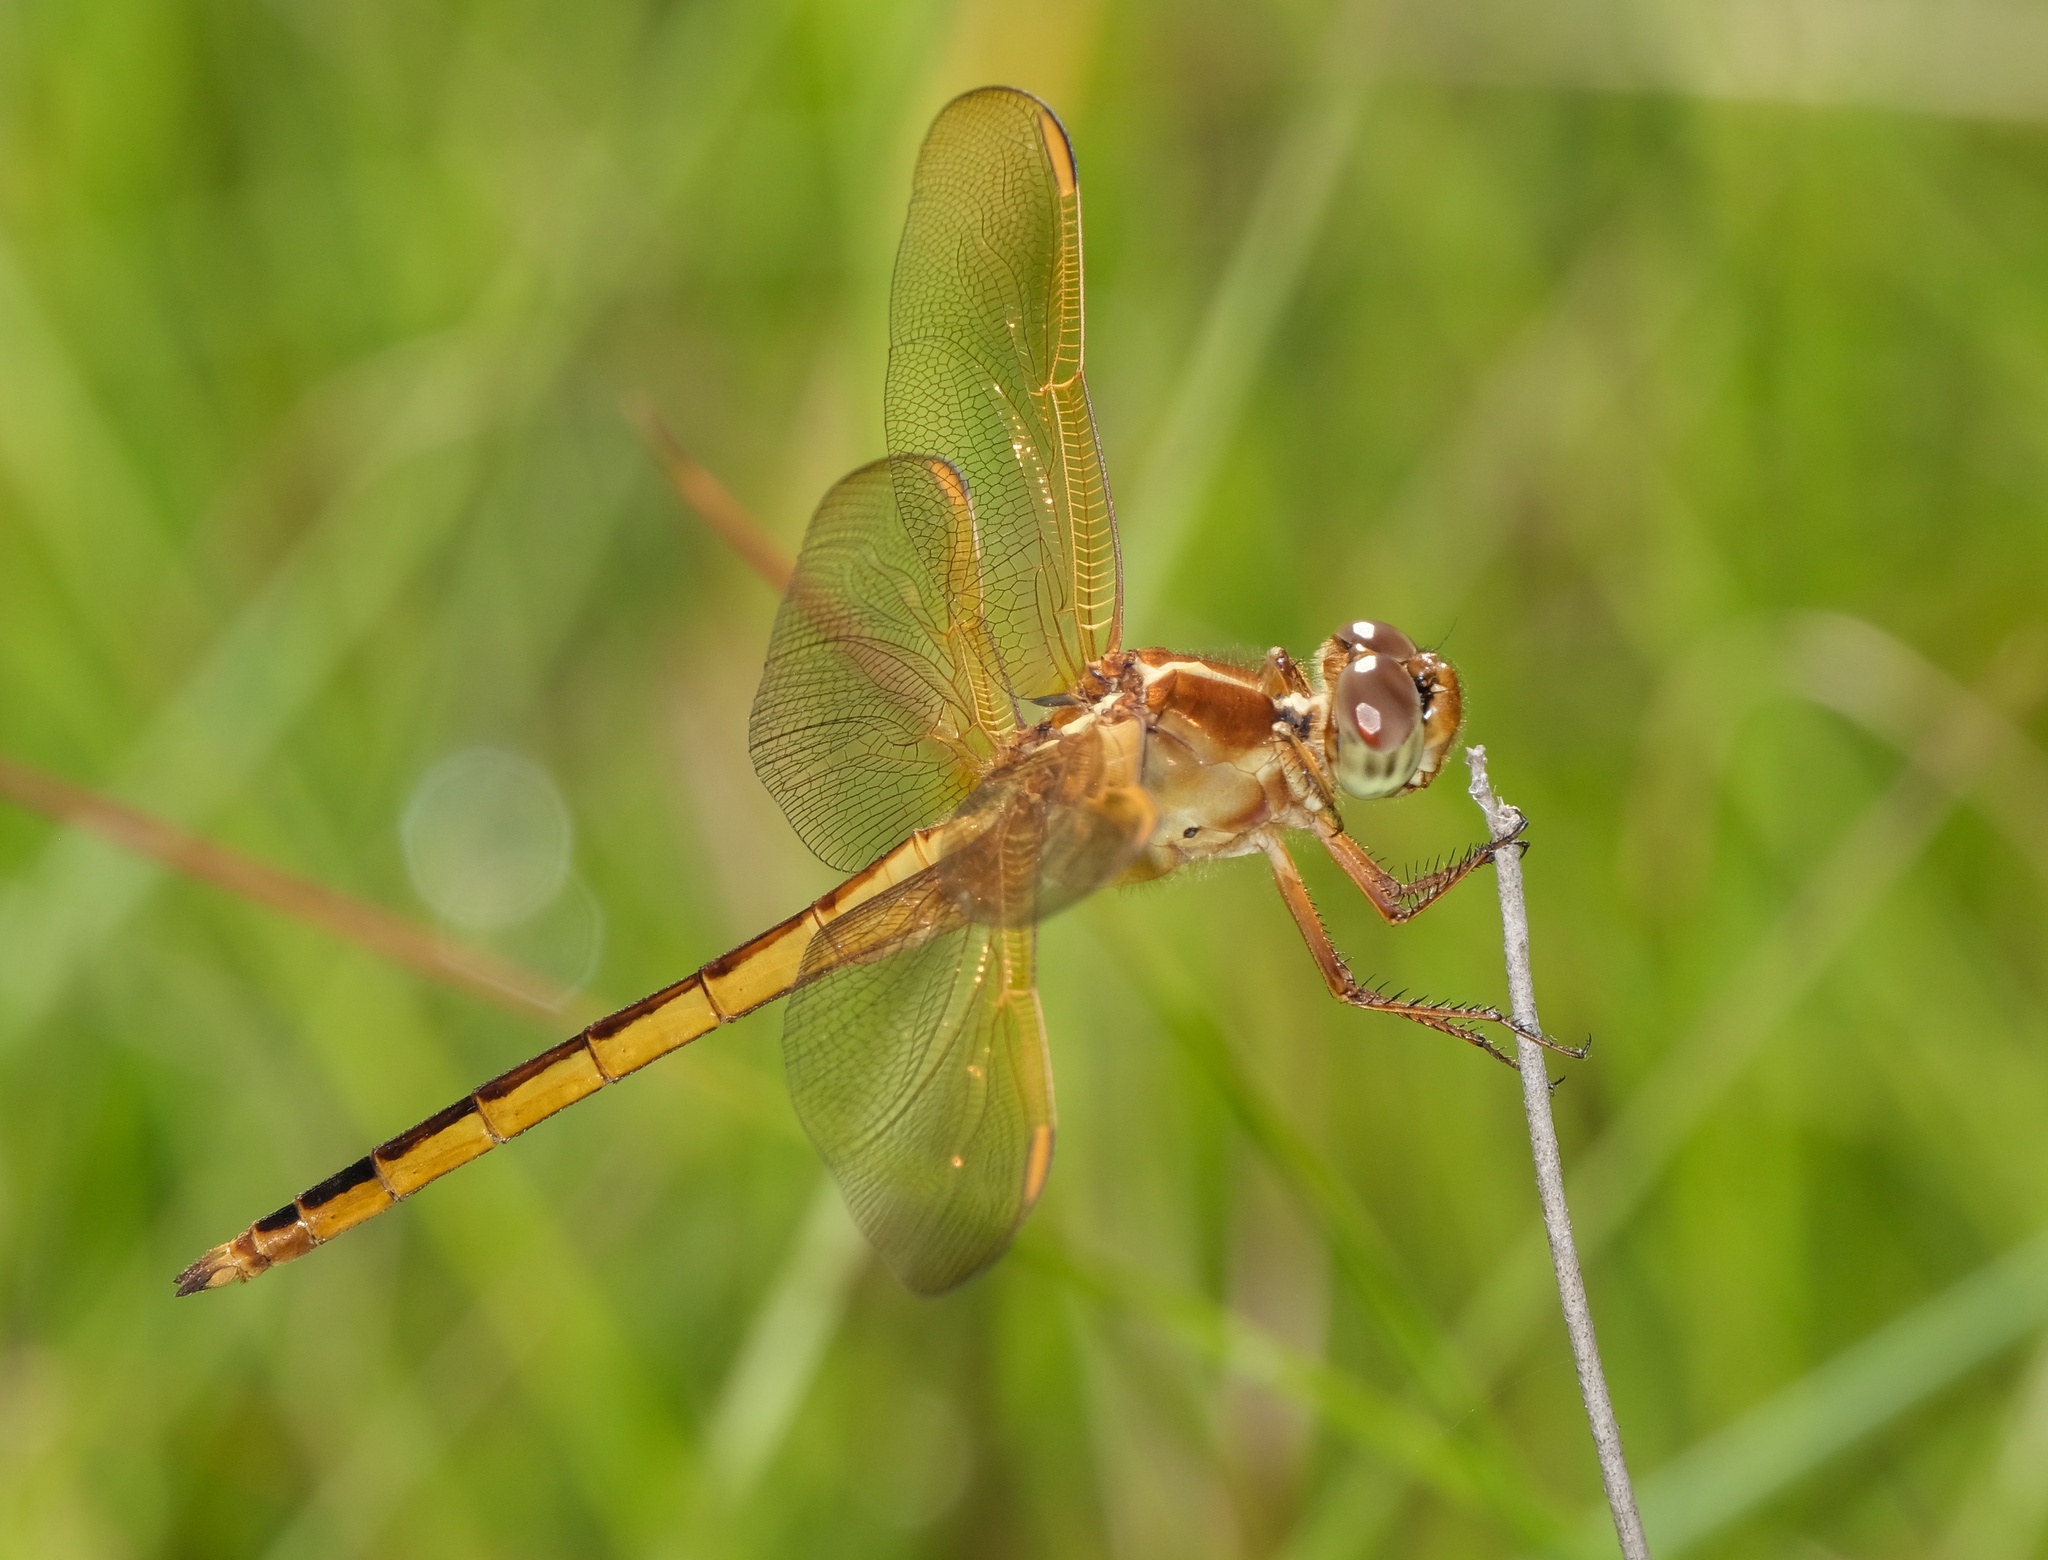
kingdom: Animalia
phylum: Arthropoda
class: Insecta
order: Odonata
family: Libellulidae
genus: Libellula
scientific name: Libellula needhami
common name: Needham's skimmer
